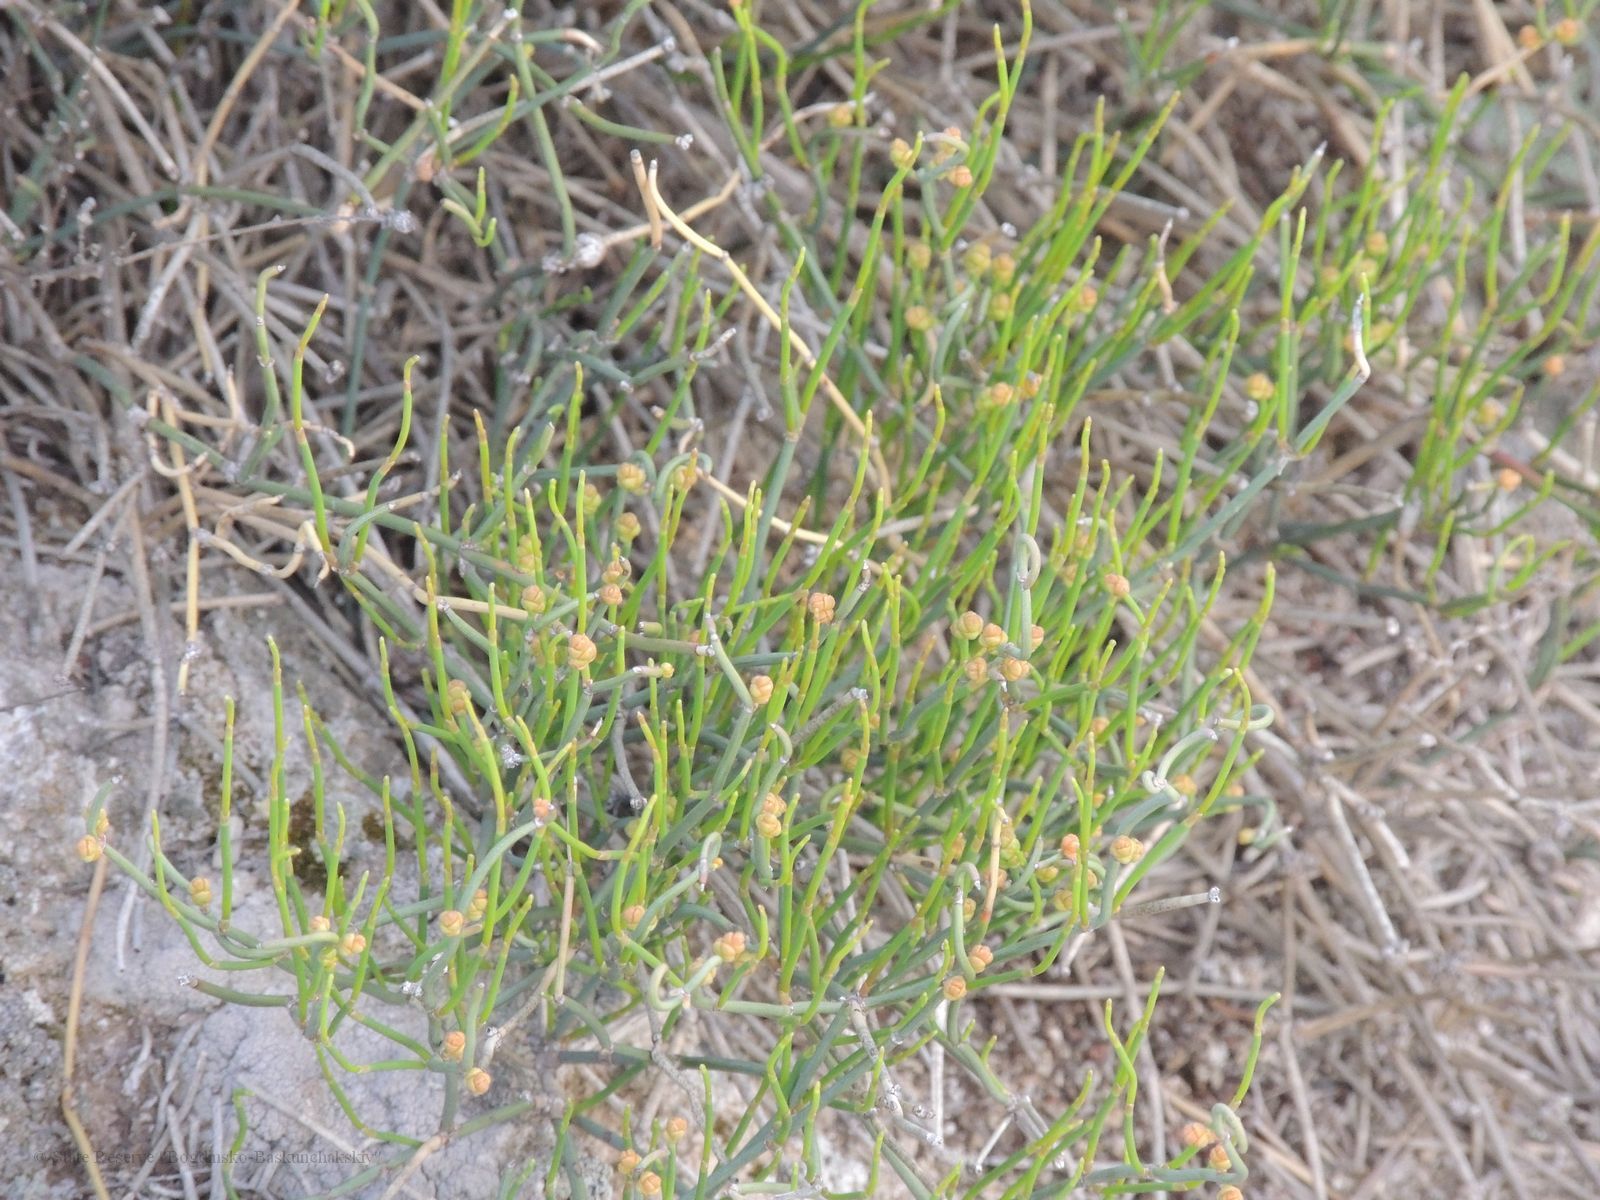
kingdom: Plantae
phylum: Tracheophyta
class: Gnetopsida
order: Ephedrales
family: Ephedraceae
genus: Ephedra
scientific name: Ephedra distachya
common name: Sea grape
